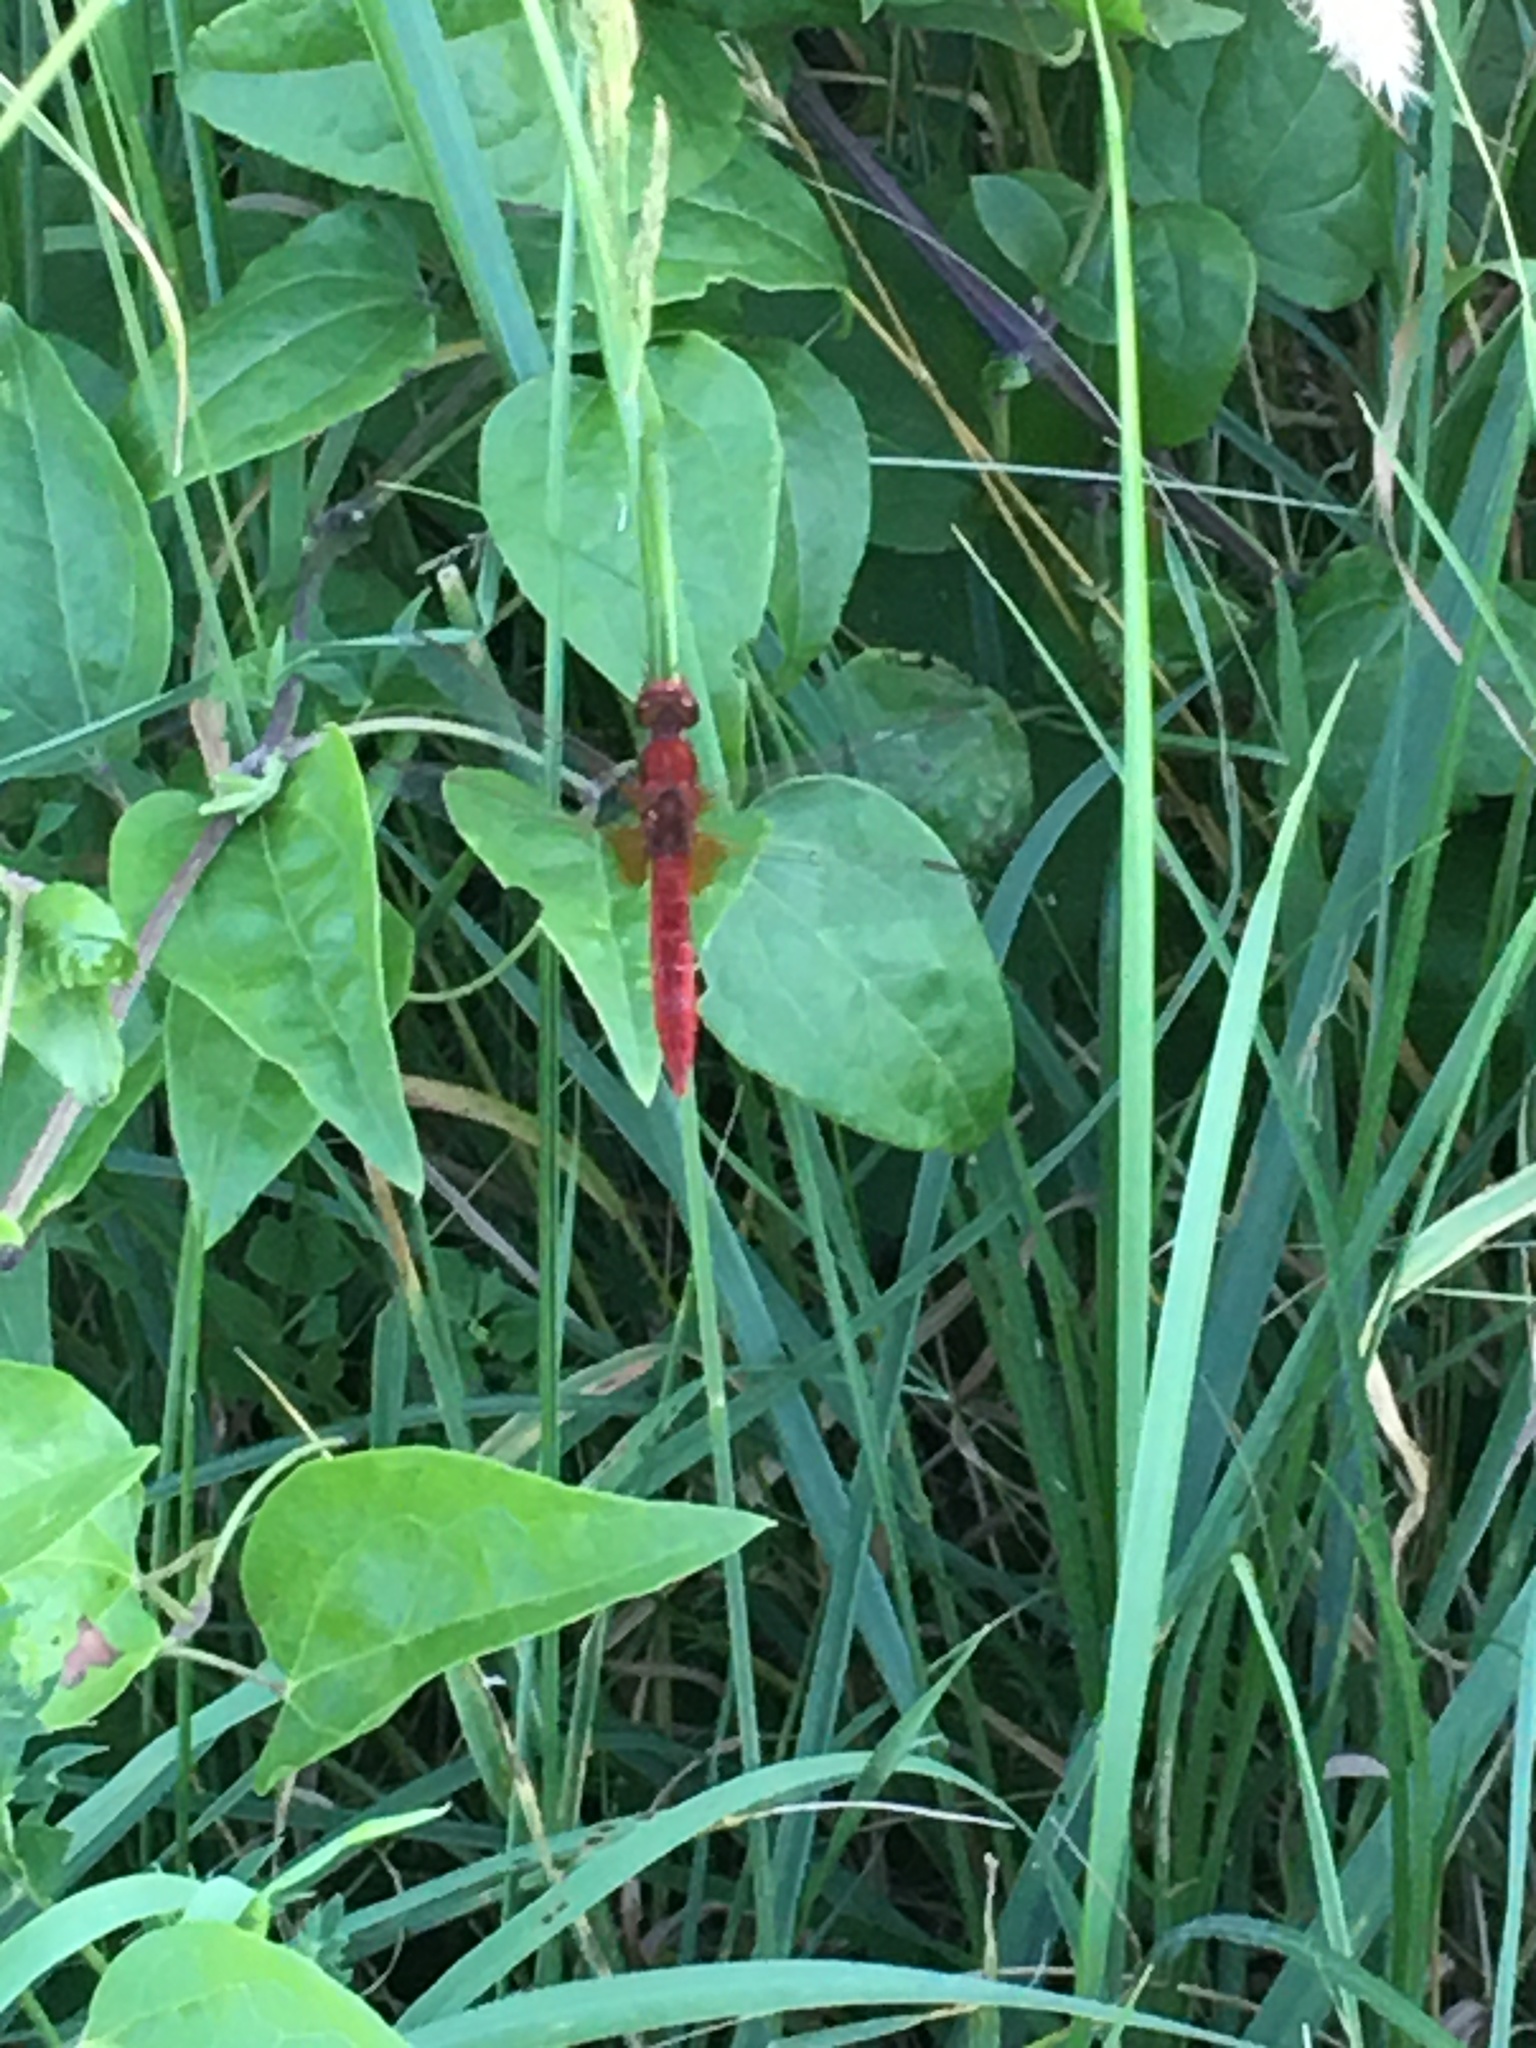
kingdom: Animalia
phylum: Arthropoda
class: Insecta
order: Odonata
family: Libellulidae
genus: Crocothemis
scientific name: Crocothemis erythraea
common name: Scarlet dragonfly
